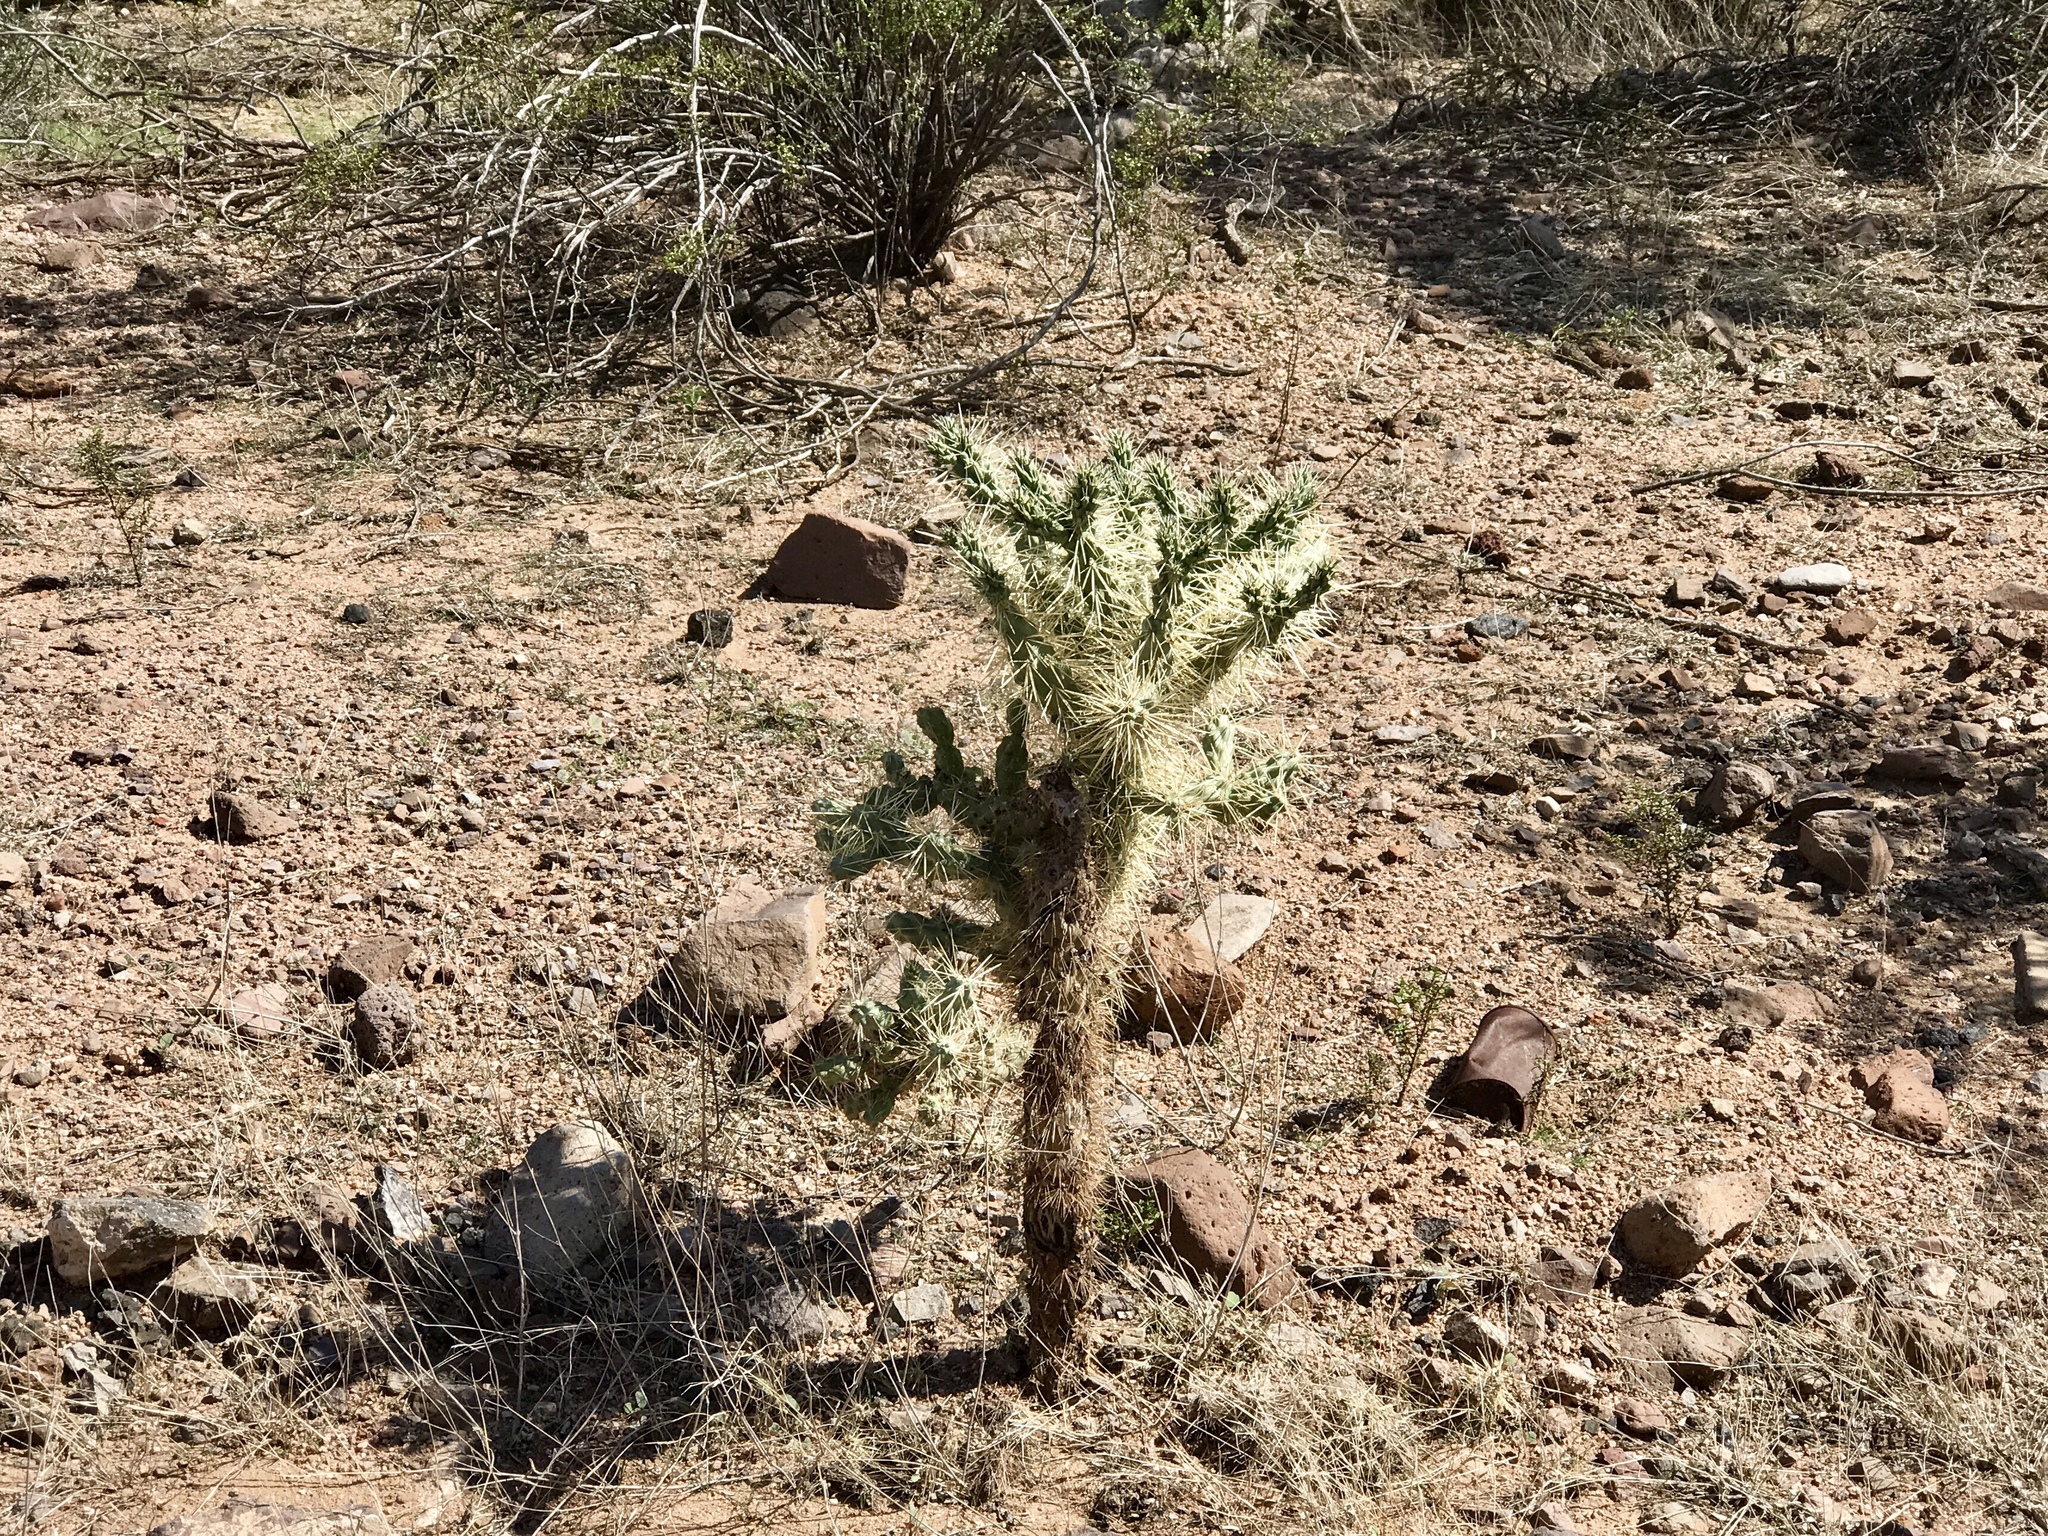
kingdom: Plantae
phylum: Tracheophyta
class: Magnoliopsida
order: Caryophyllales
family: Cactaceae
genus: Cylindropuntia
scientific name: Cylindropuntia fulgida
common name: Jumping cholla
